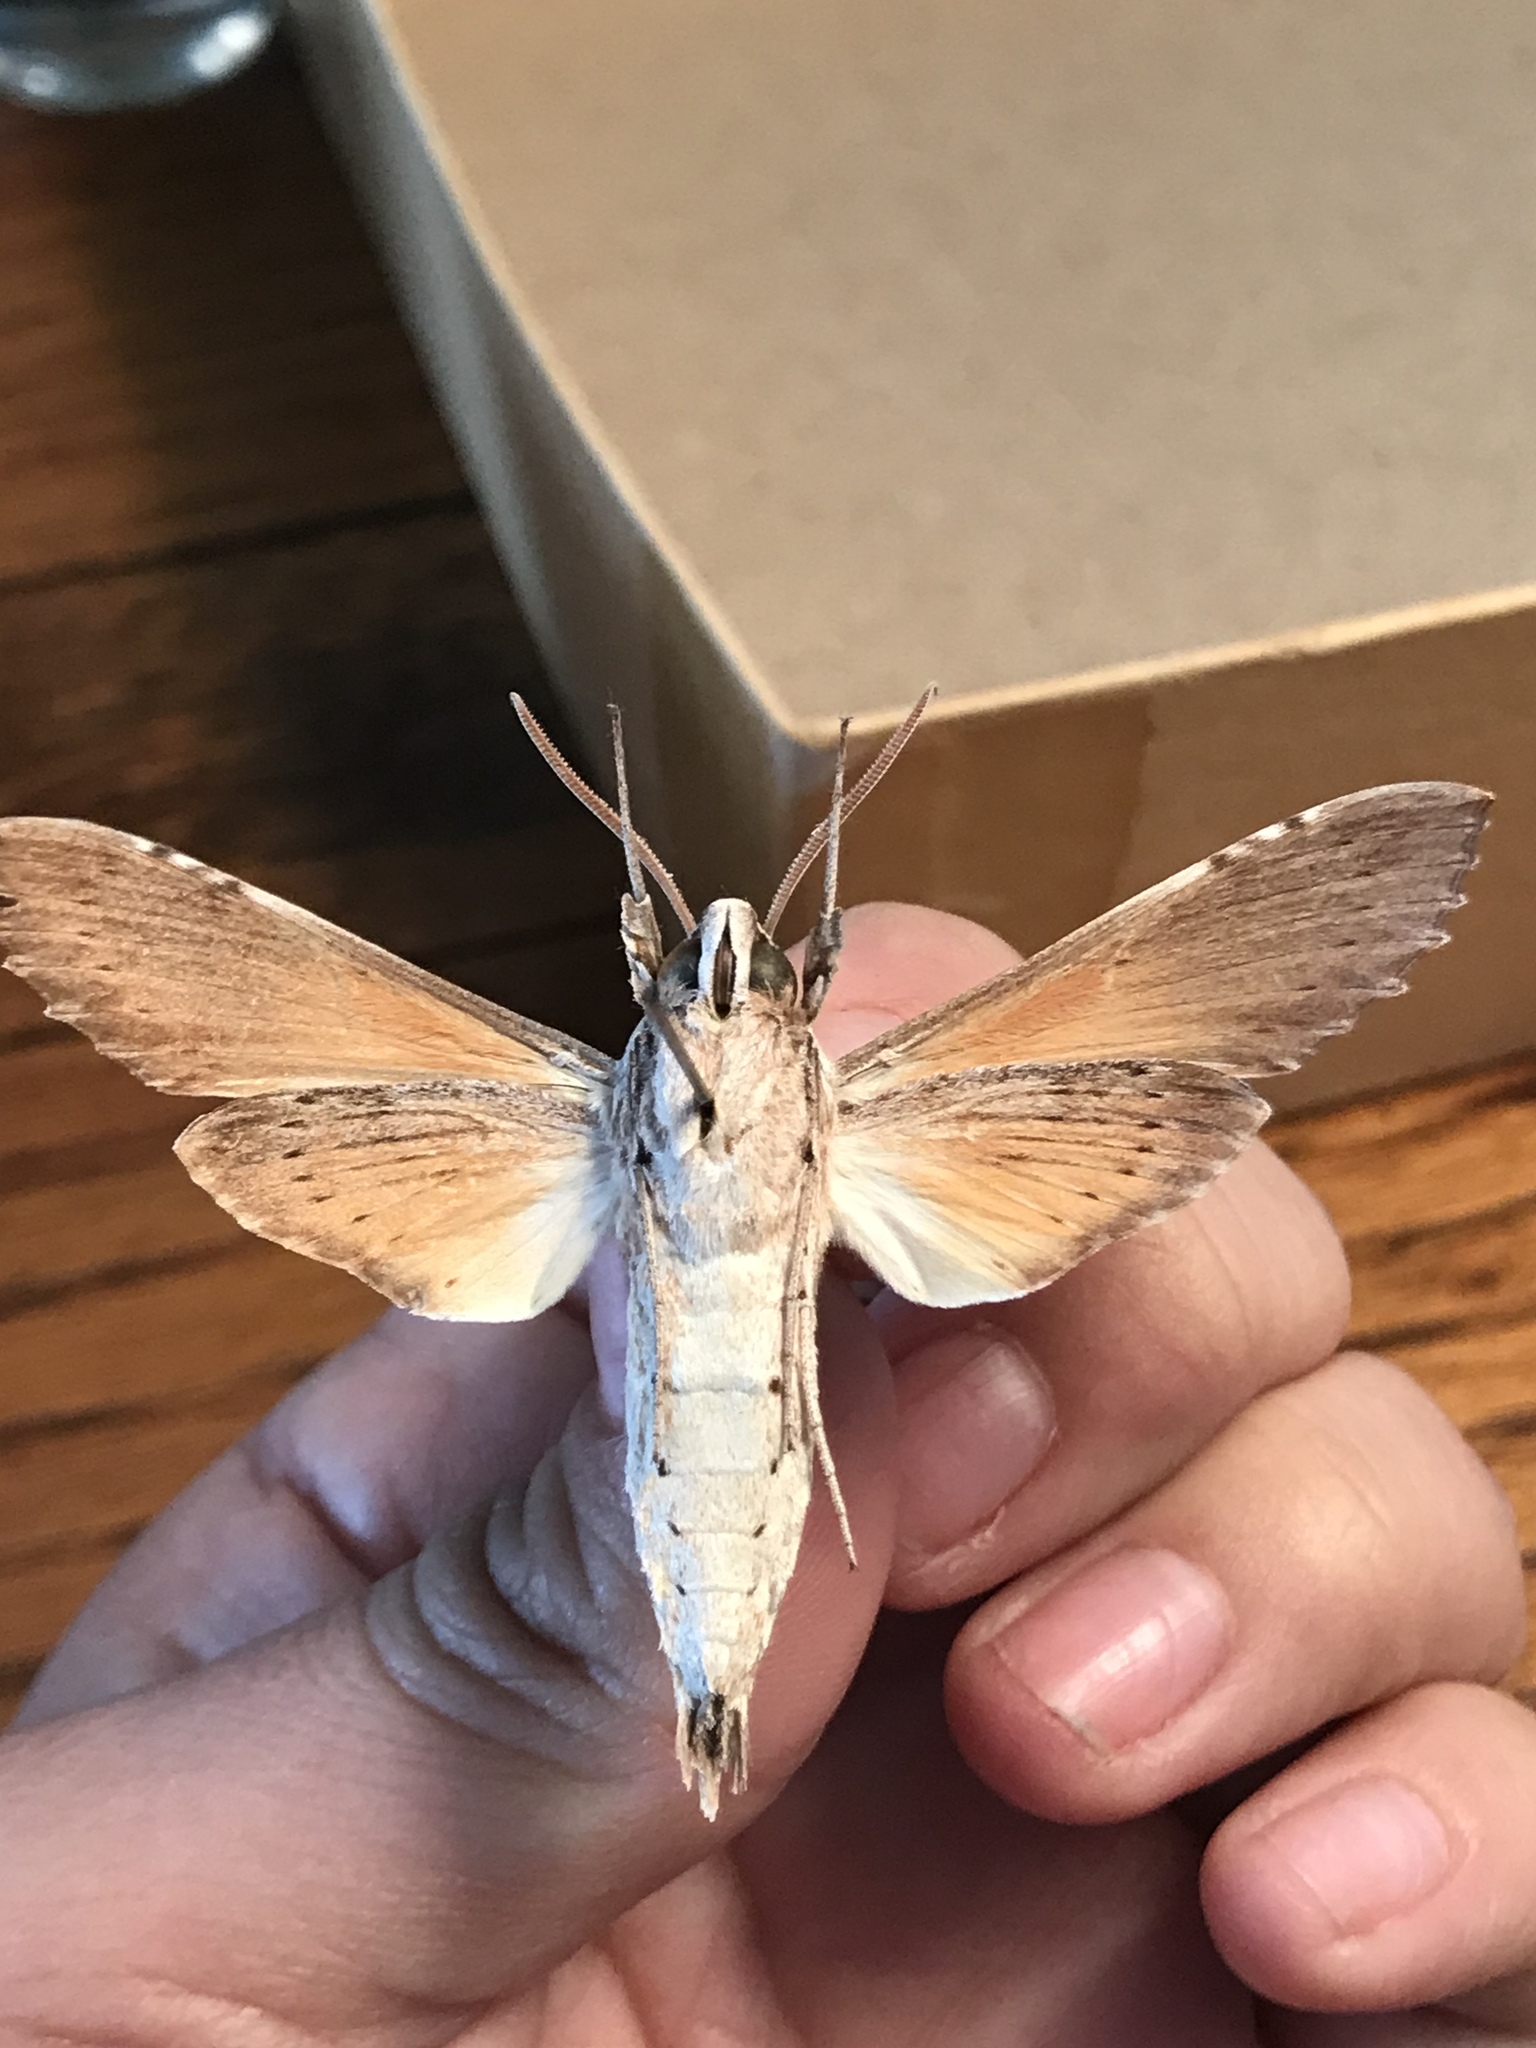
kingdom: Animalia
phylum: Arthropoda
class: Insecta
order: Lepidoptera
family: Sphingidae
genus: Erinnyis
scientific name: Erinnyis obscura
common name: Obscure sphinx
